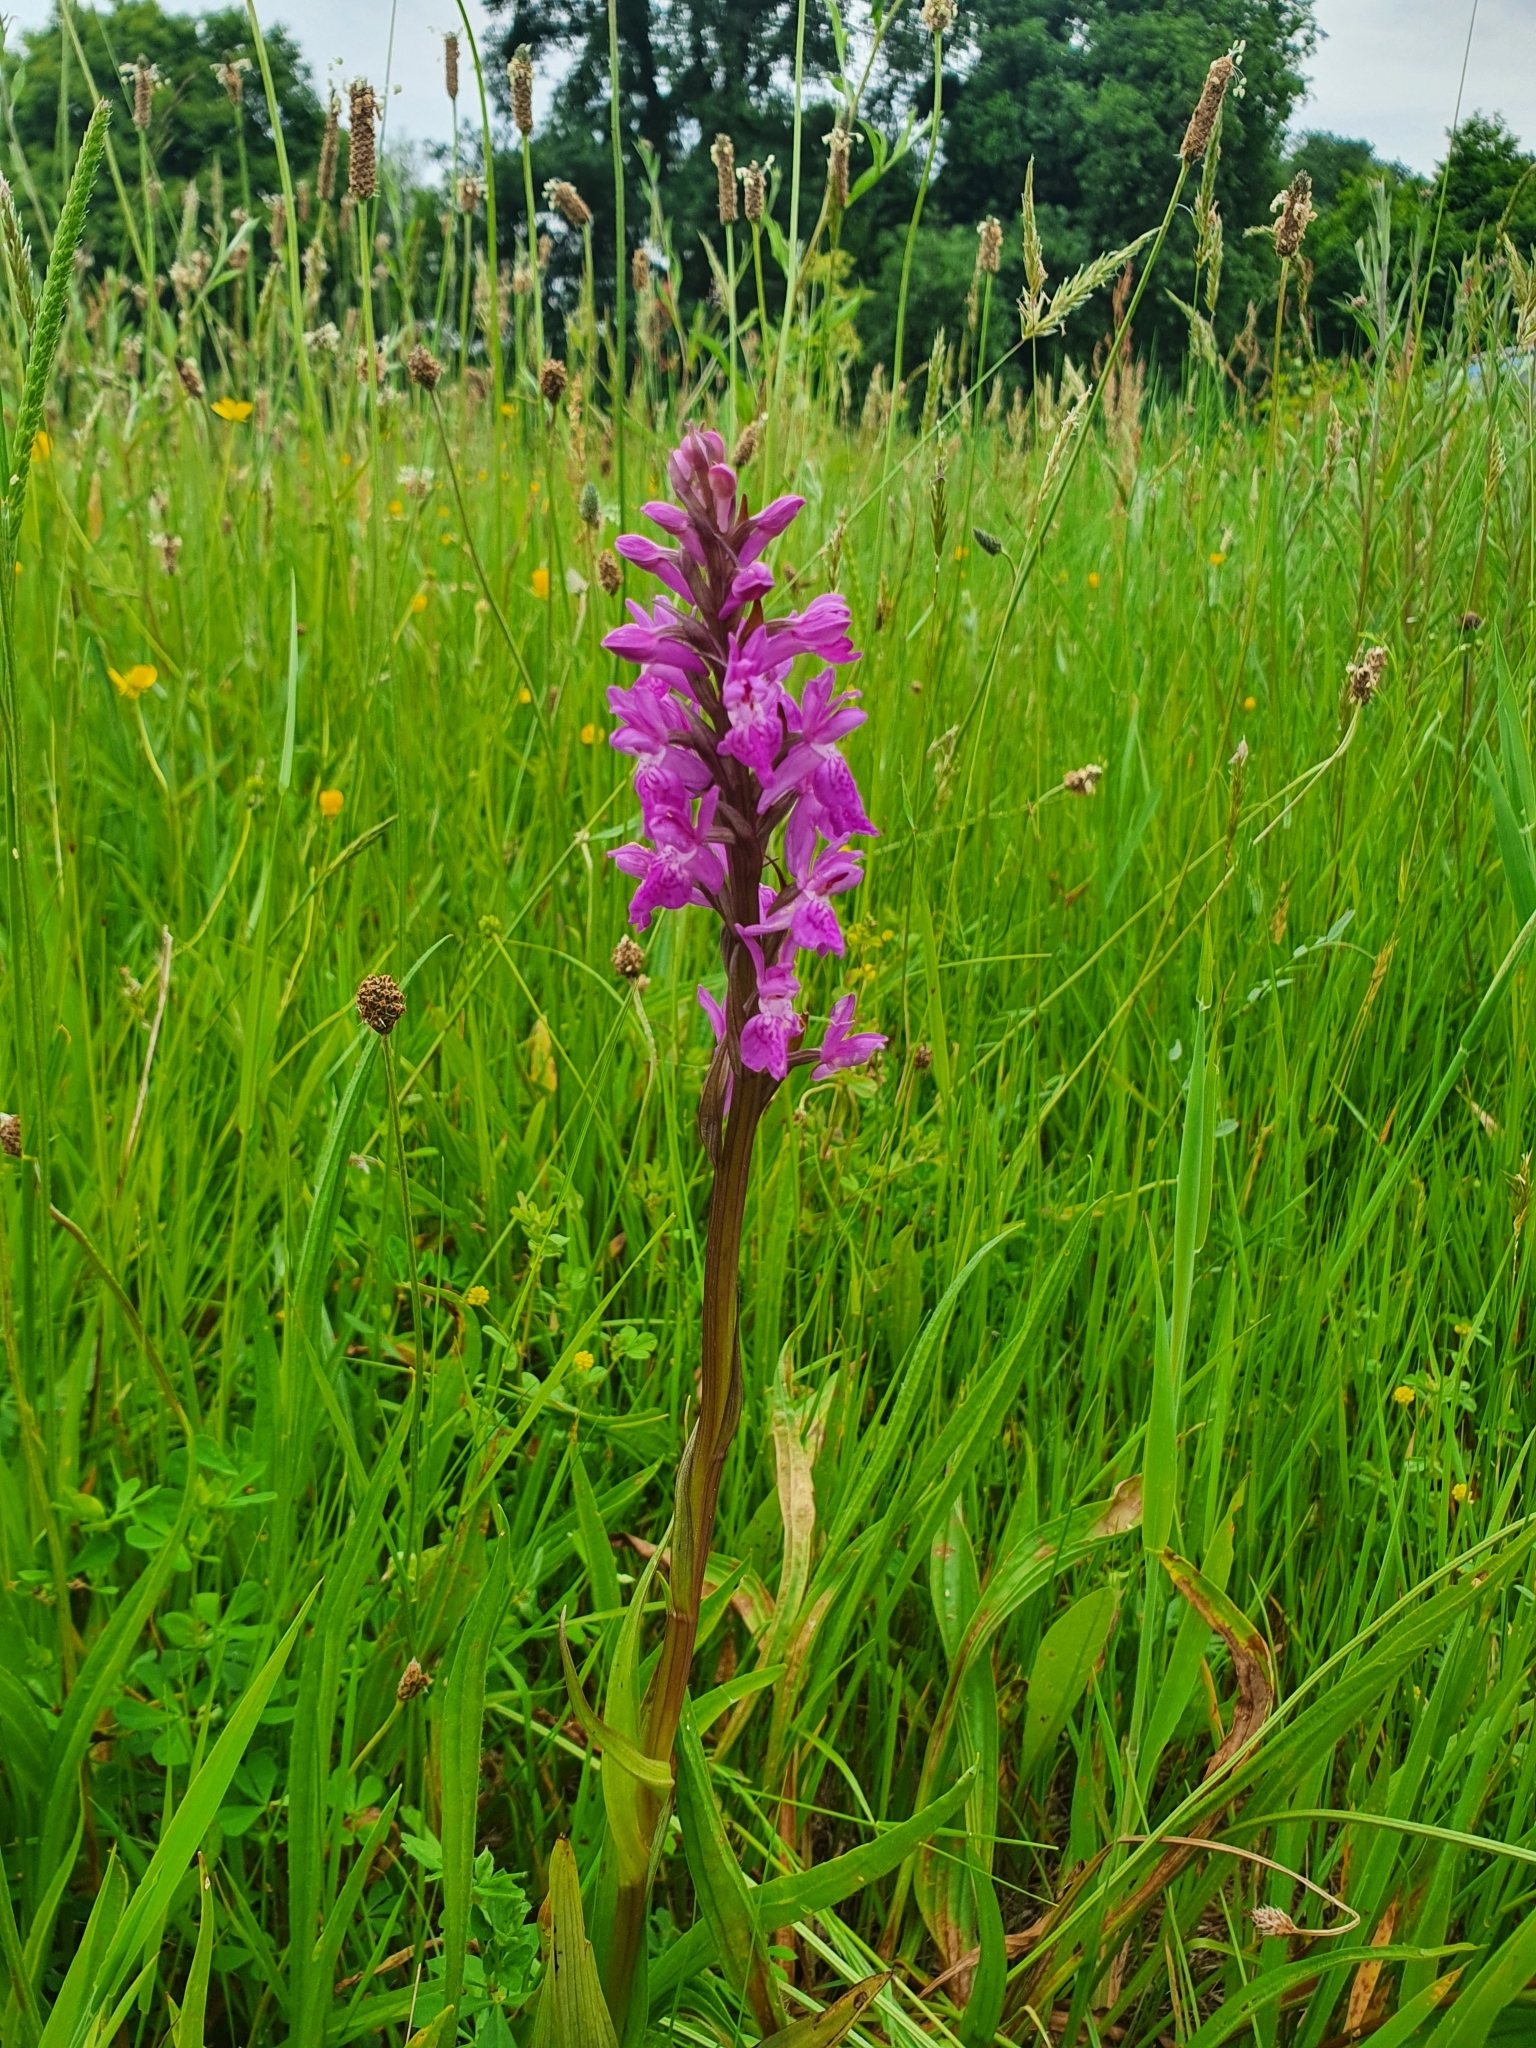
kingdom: Plantae
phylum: Tracheophyta
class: Liliopsida
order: Asparagales
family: Orchidaceae
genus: Dactylorhiza
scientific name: Dactylorhiza elata
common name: Stately dactylorhiza
